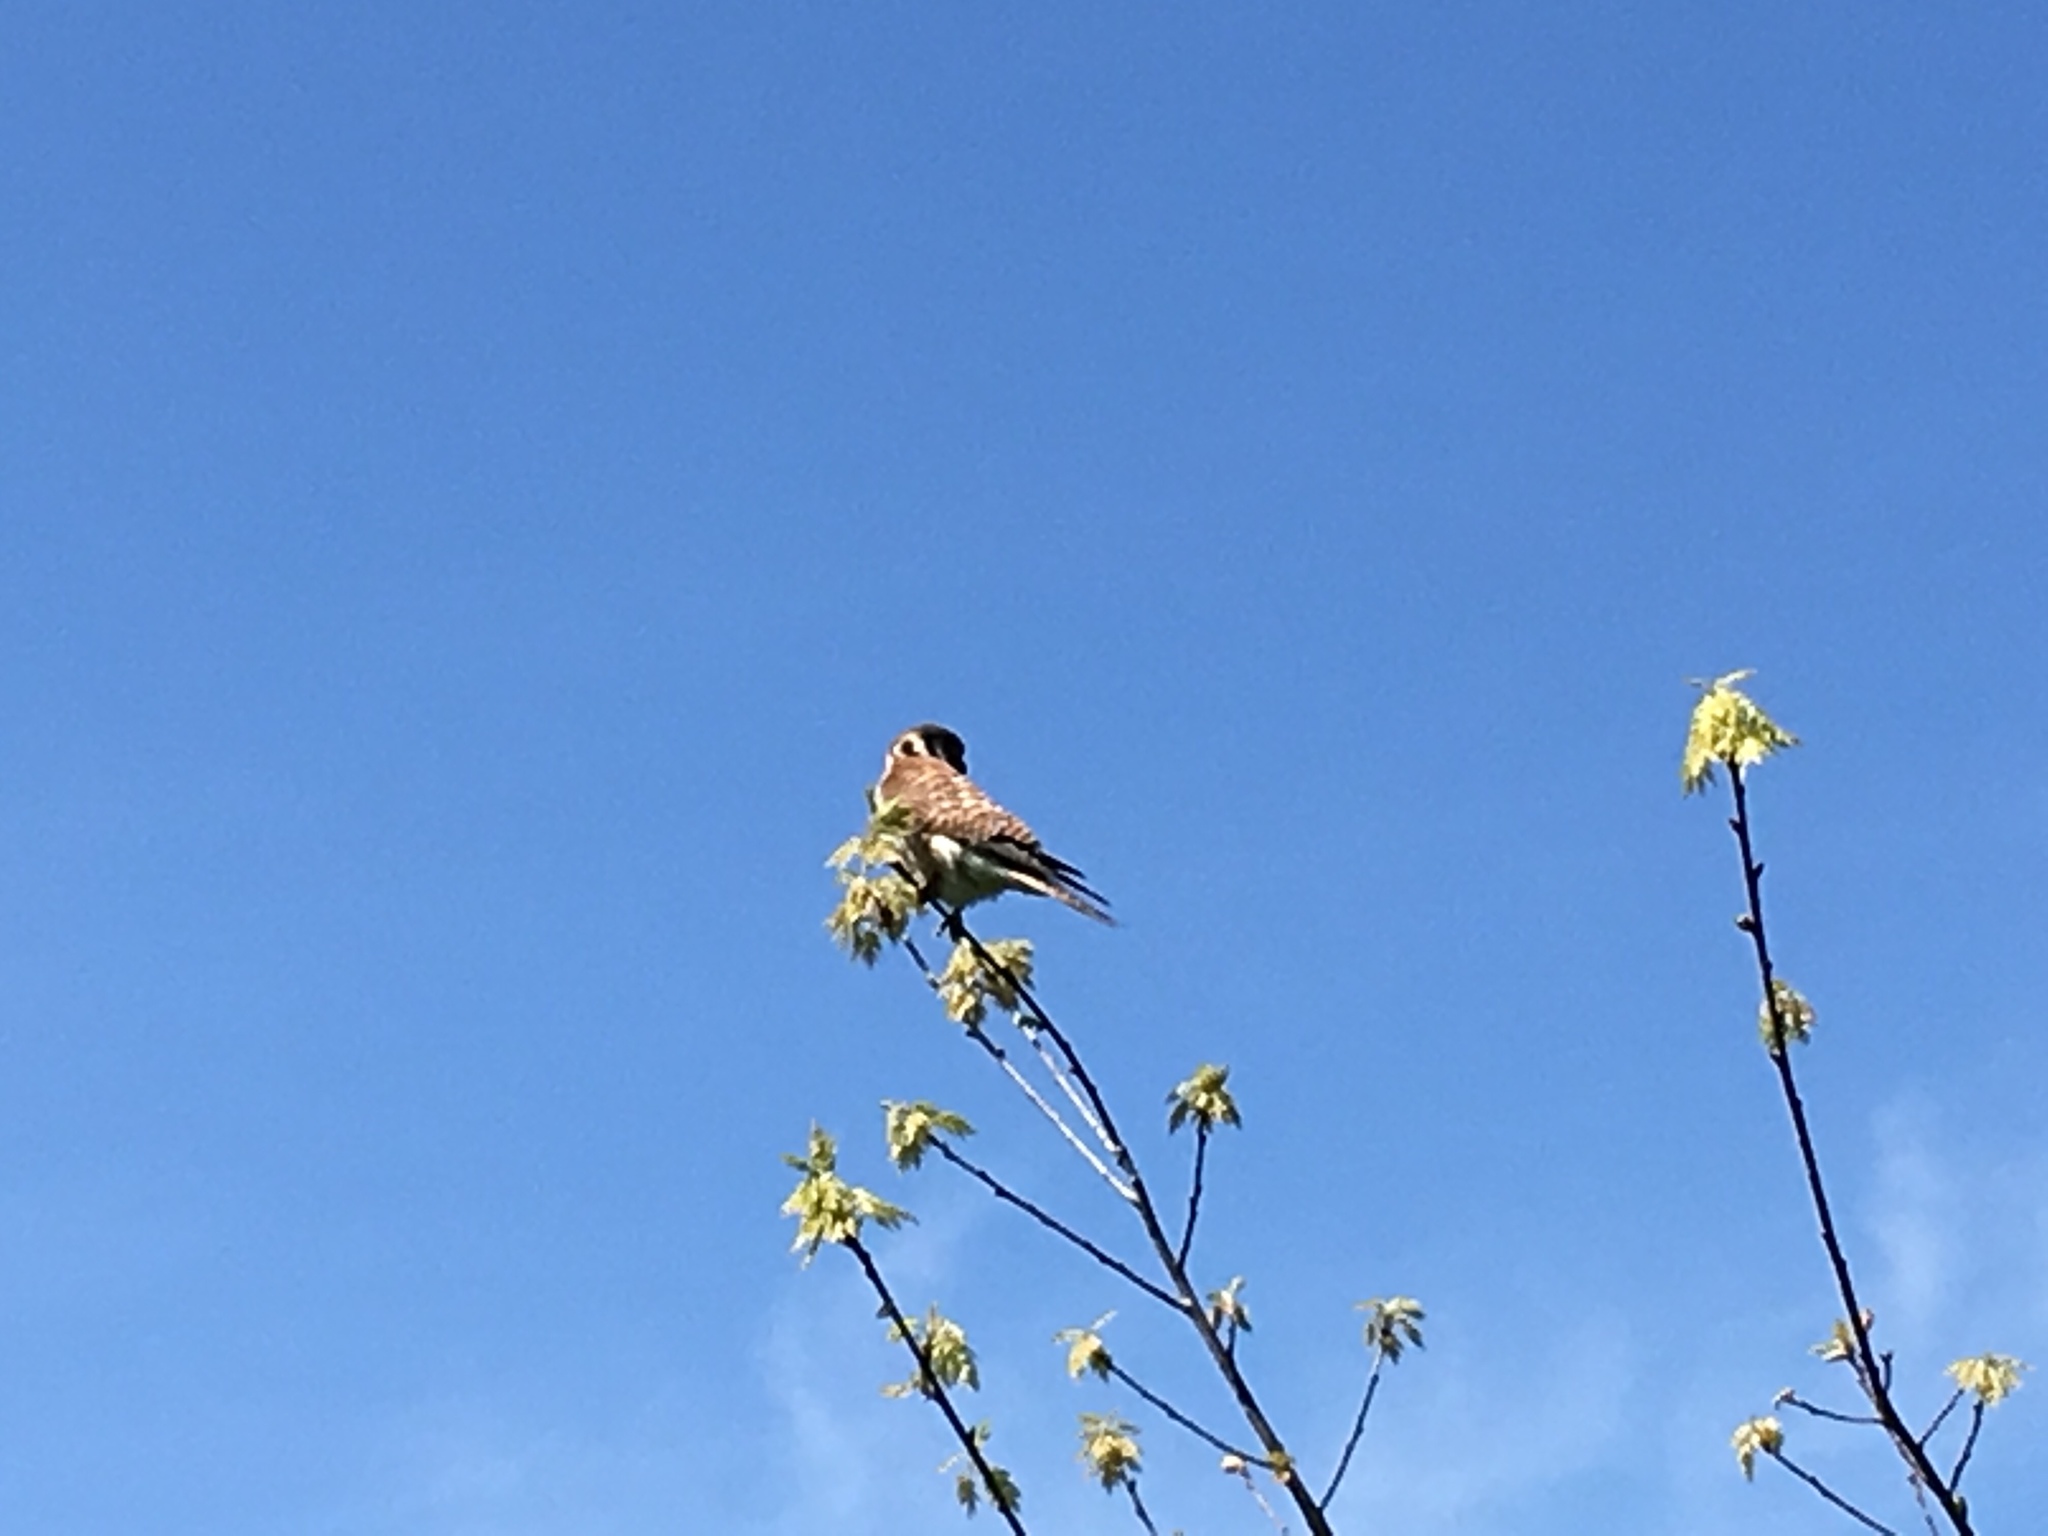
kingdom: Animalia
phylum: Chordata
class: Aves
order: Falconiformes
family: Falconidae
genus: Falco
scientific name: Falco sparverius
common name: American kestrel
